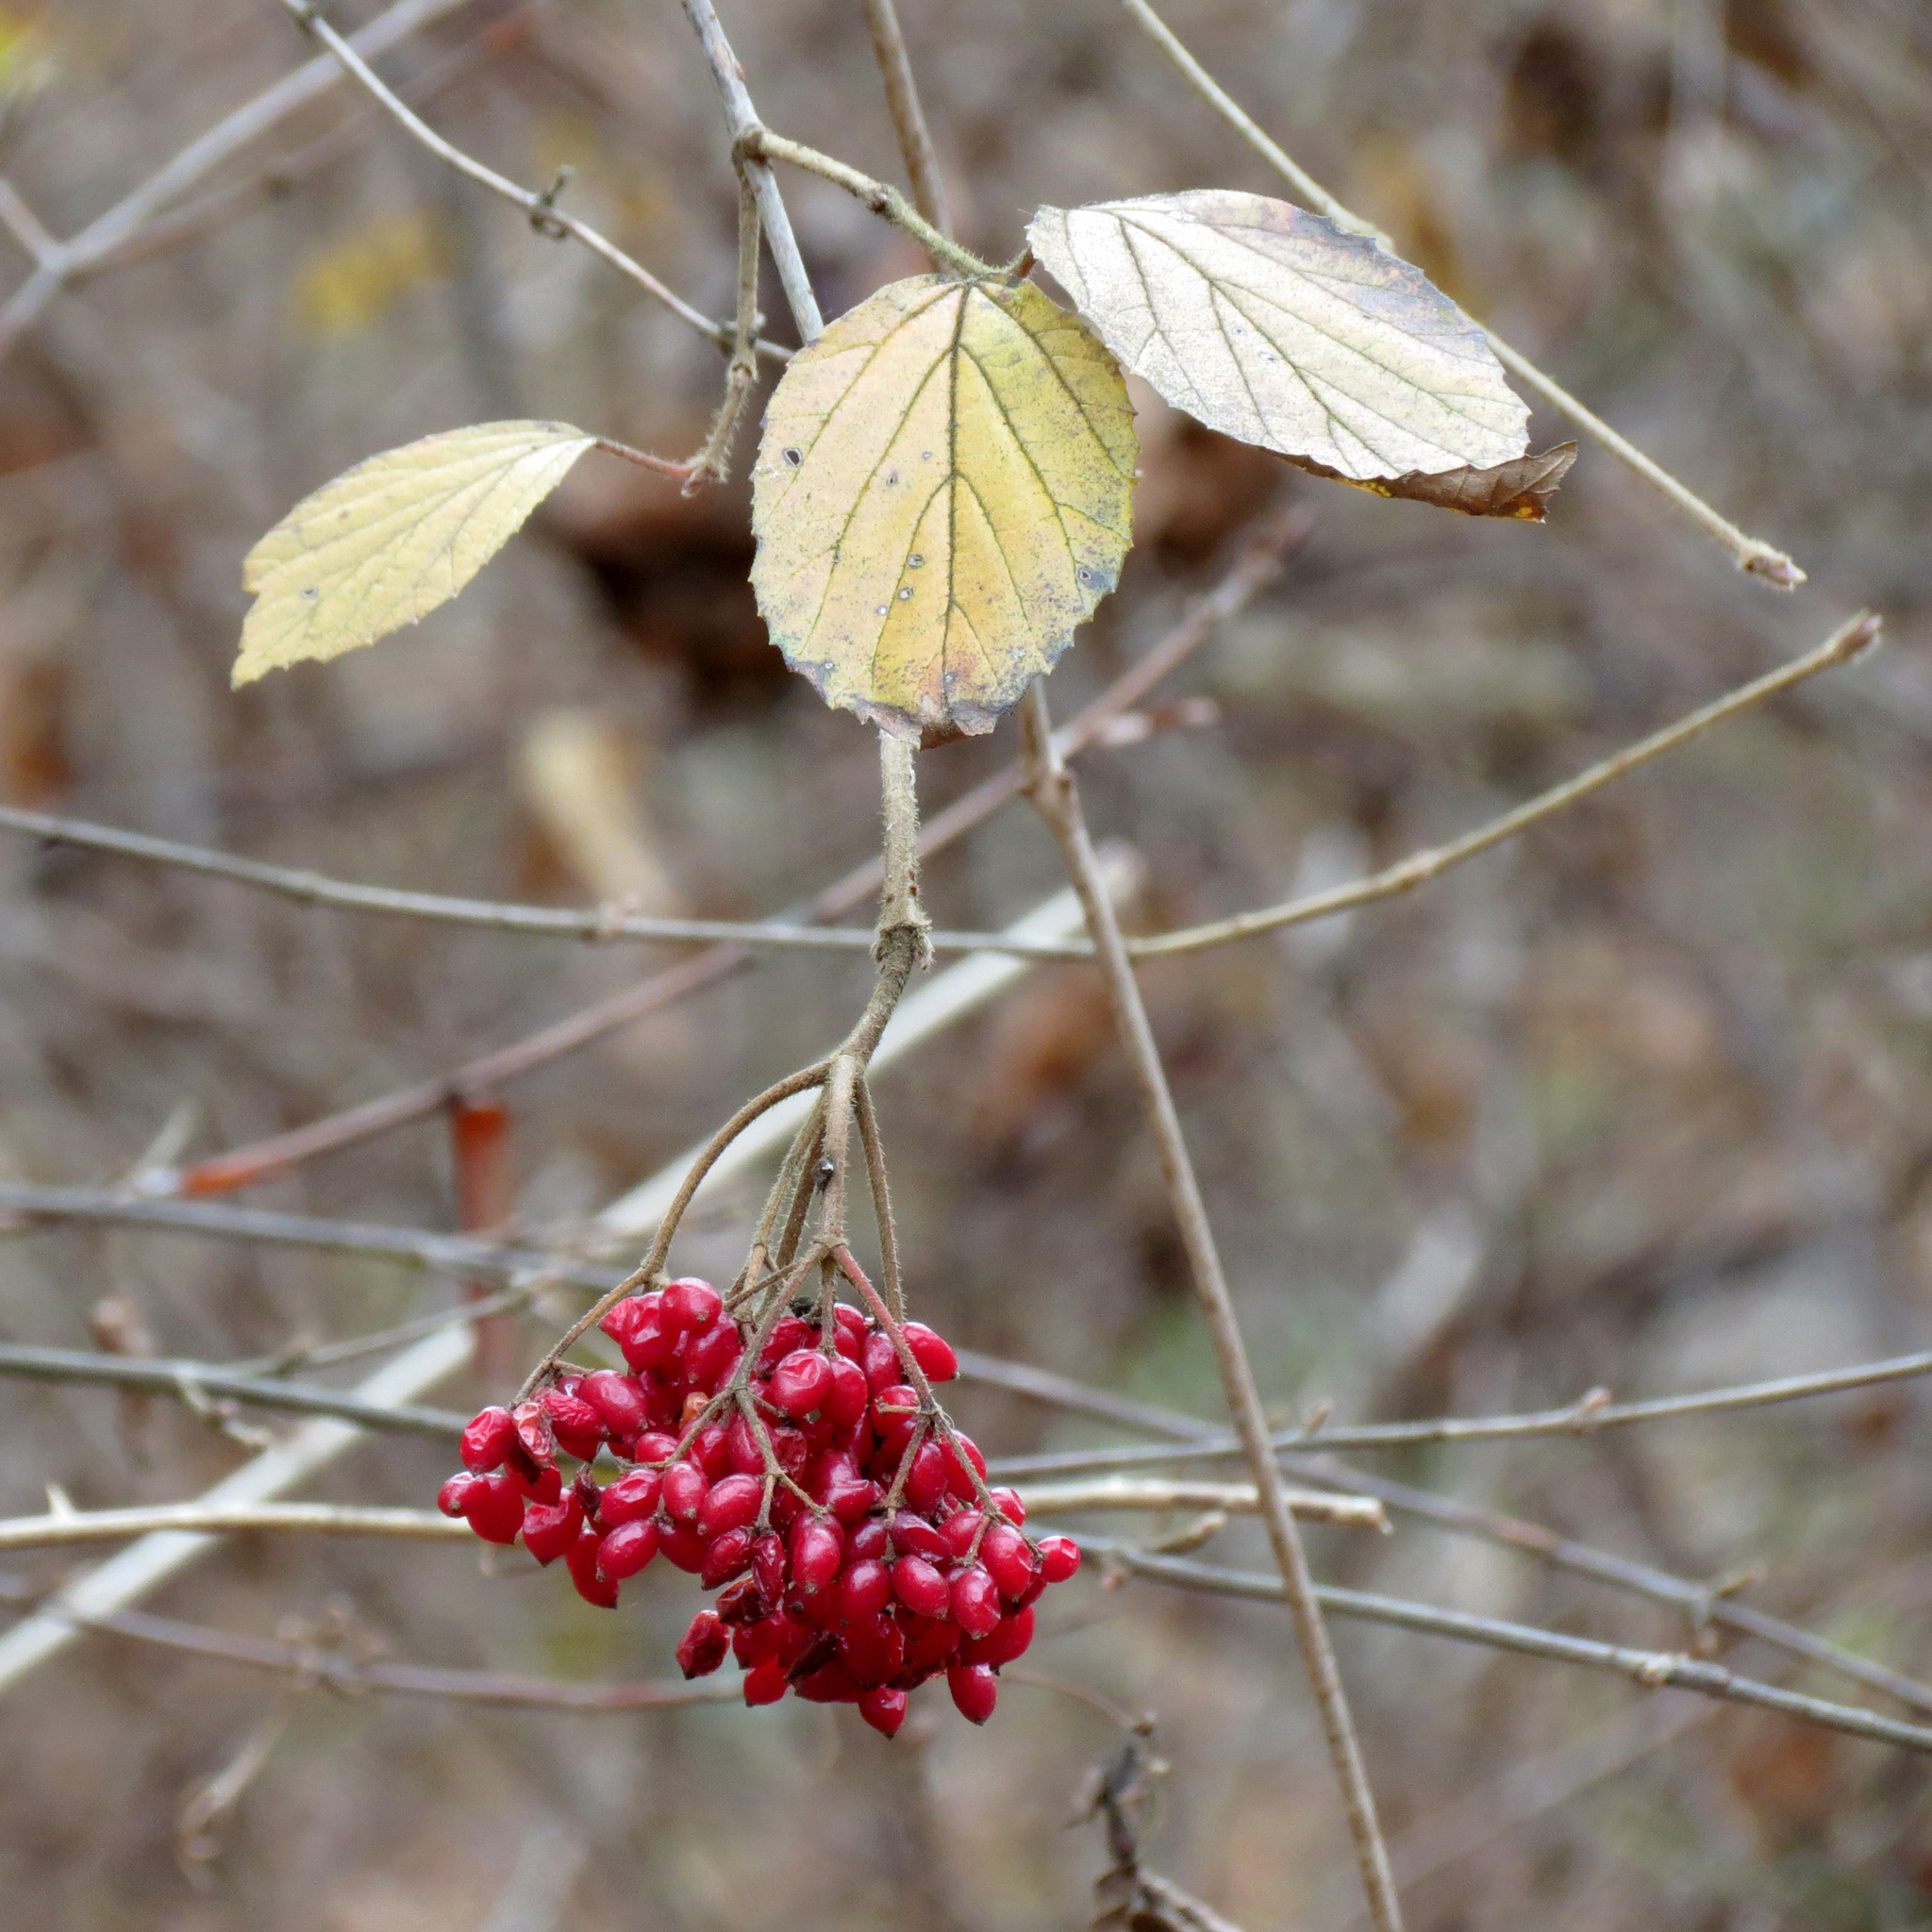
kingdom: Plantae
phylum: Tracheophyta
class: Magnoliopsida
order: Dipsacales
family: Viburnaceae
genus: Viburnum
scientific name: Viburnum dilatatum
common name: Linden arrowwood
